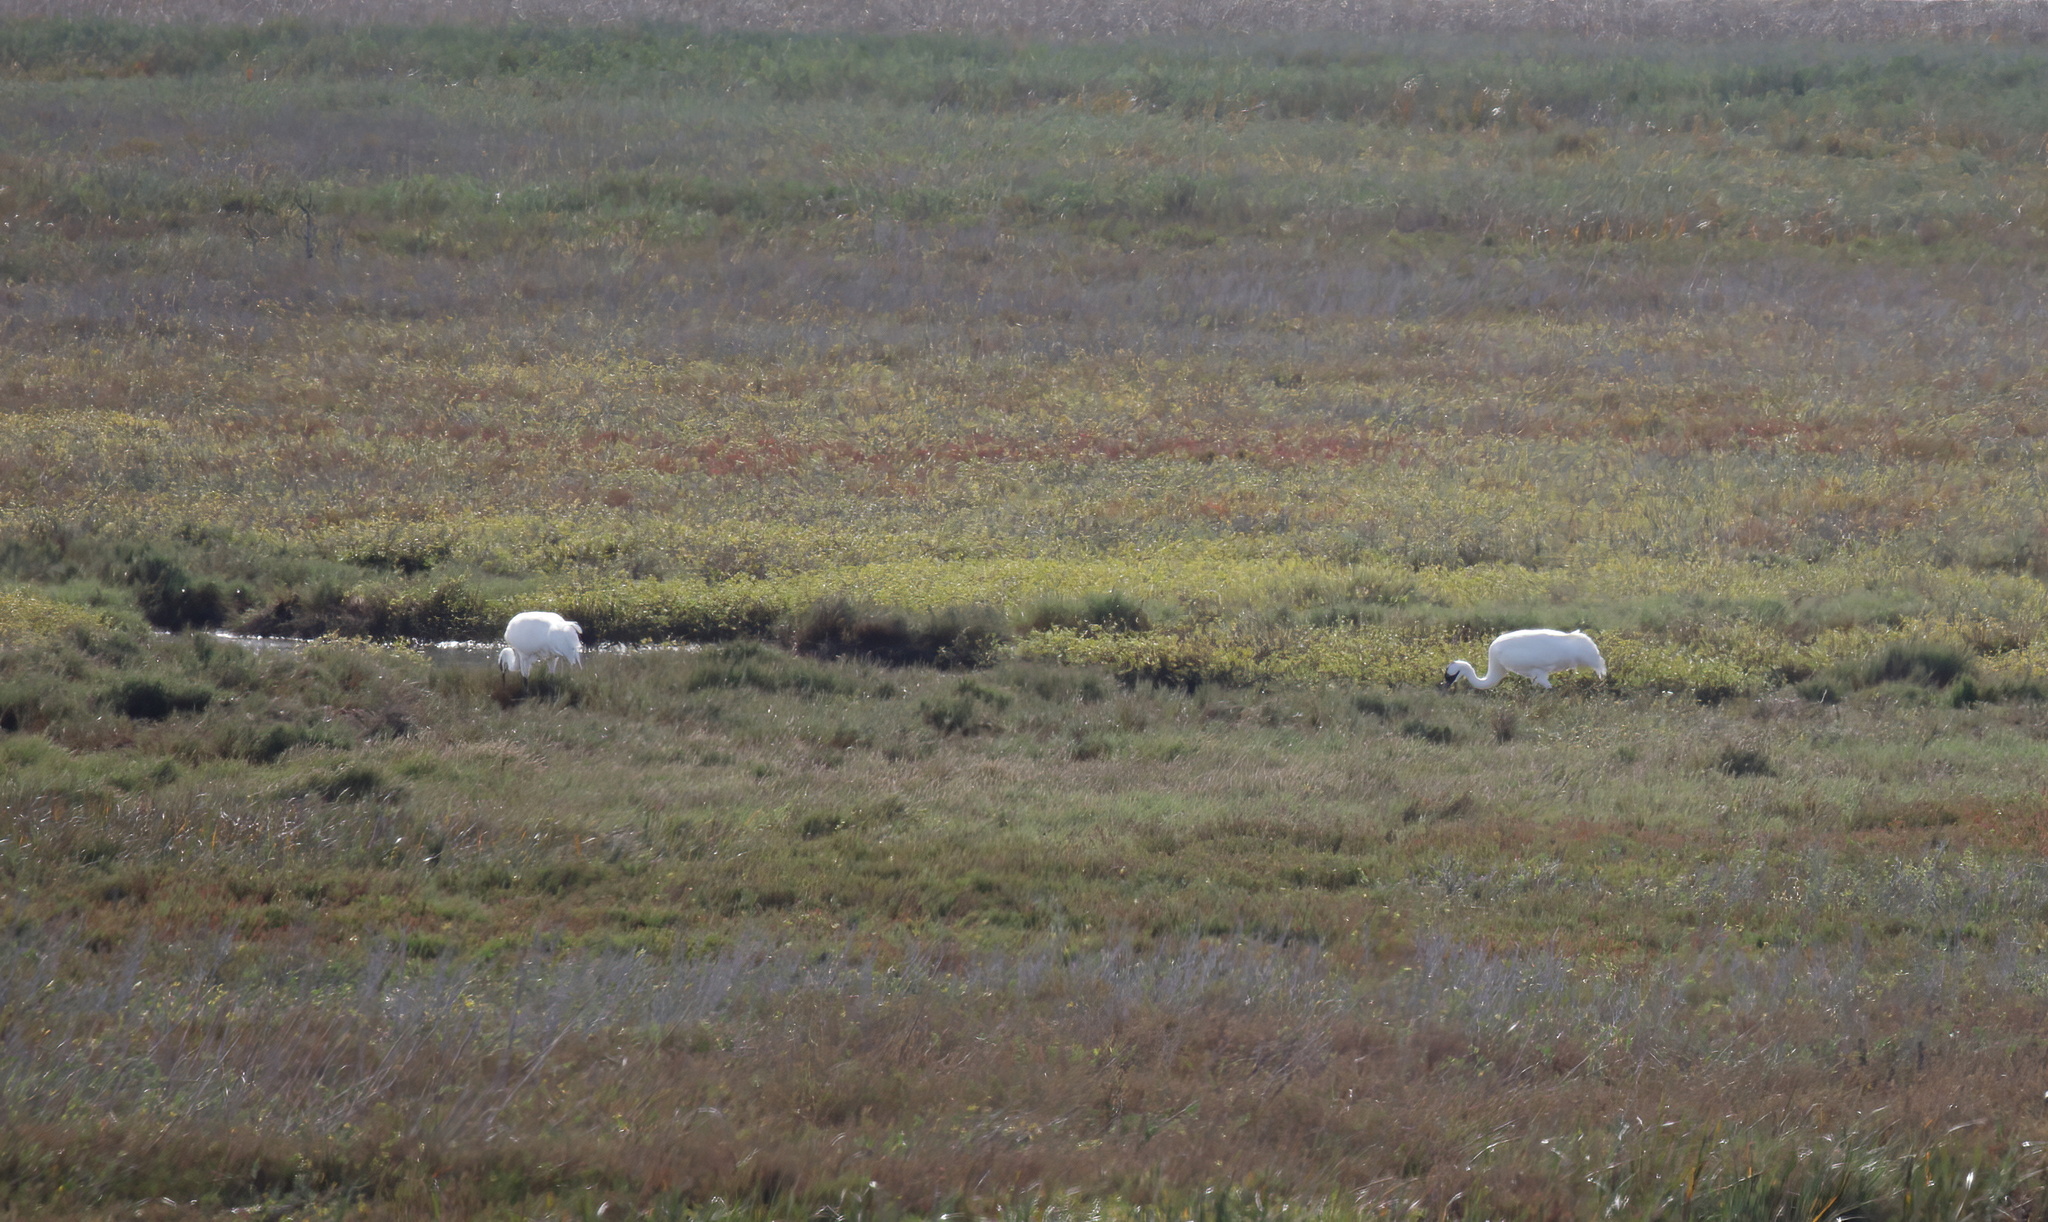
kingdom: Animalia
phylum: Chordata
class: Aves
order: Gruiformes
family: Gruidae
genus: Grus
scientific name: Grus americana
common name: Whooping crane
